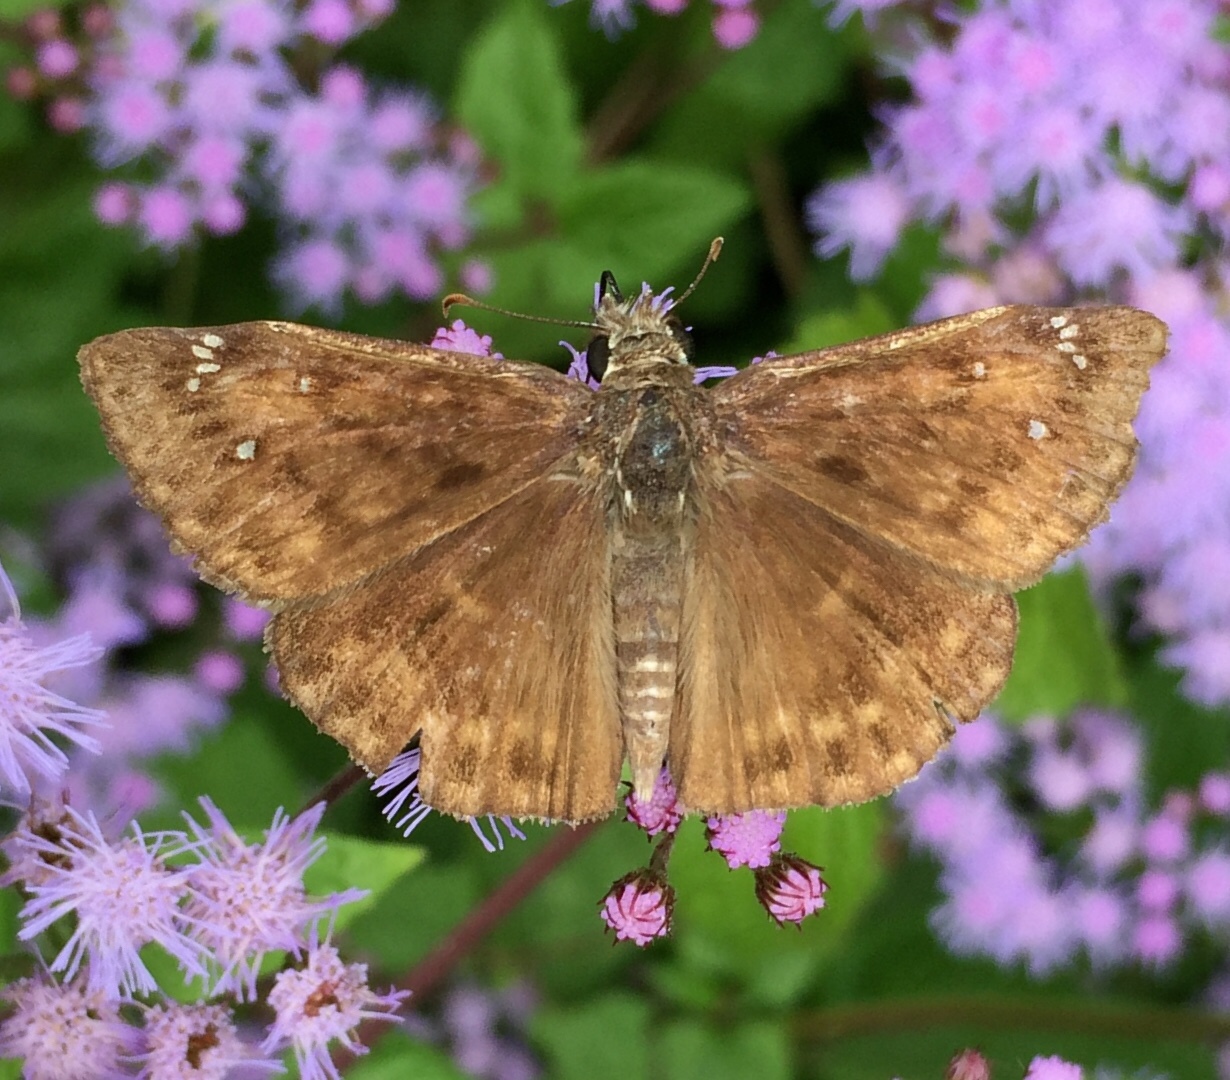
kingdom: Animalia
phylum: Arthropoda
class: Insecta
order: Lepidoptera
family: Hesperiidae
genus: Erynnis
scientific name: Erynnis horatius
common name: Horace's duskywing
